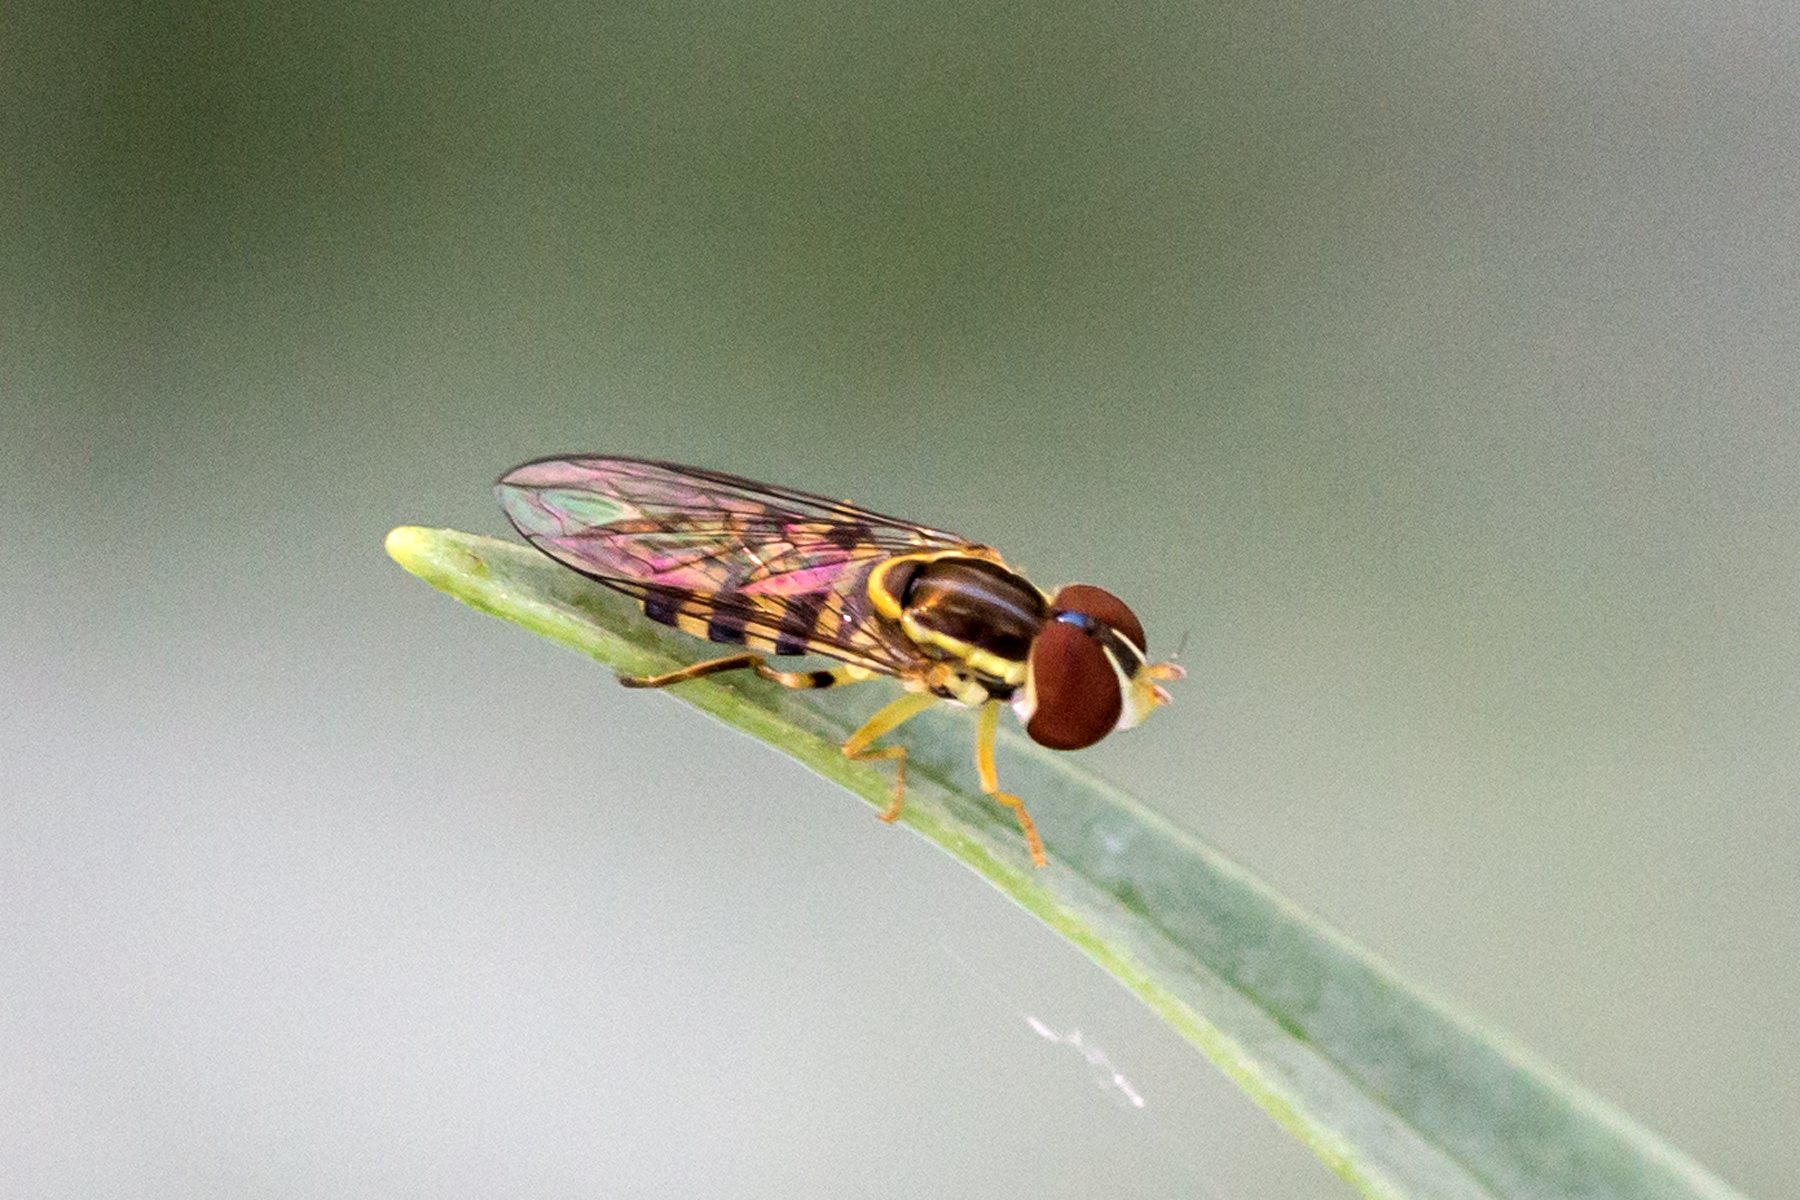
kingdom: Animalia
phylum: Arthropoda
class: Insecta
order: Diptera
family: Syrphidae
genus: Toxomerus
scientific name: Toxomerus geminatus
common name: Eastern calligrapher
